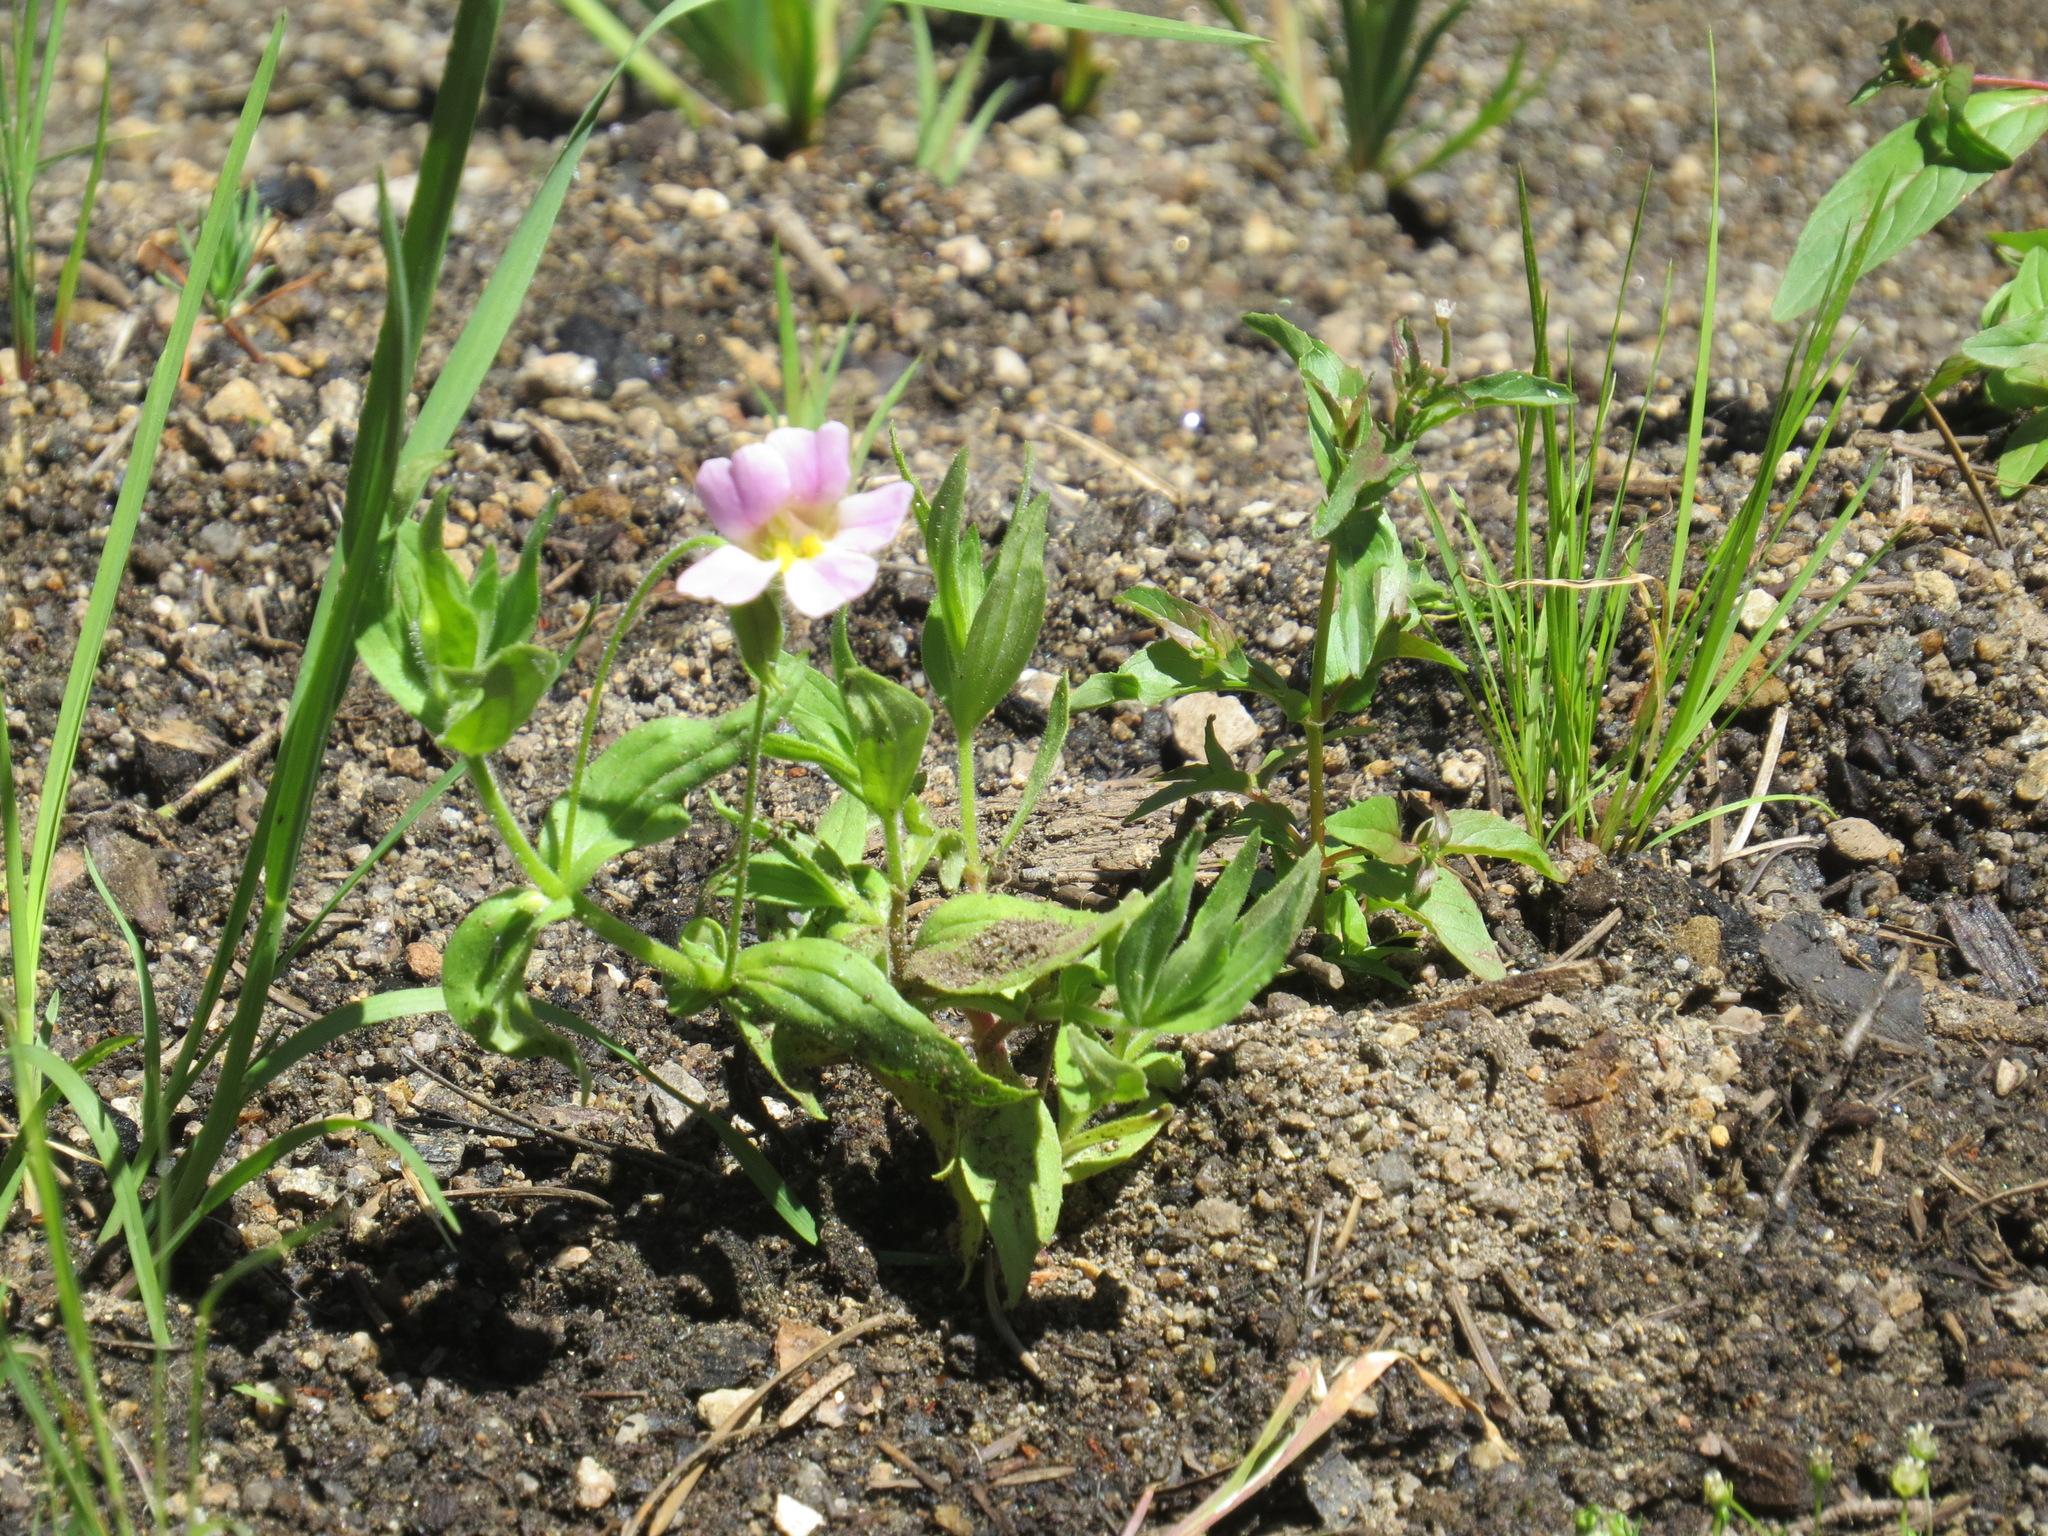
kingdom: Plantae
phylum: Tracheophyta
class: Magnoliopsida
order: Lamiales
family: Phrymaceae
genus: Erythranthe
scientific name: Erythranthe erubescens
